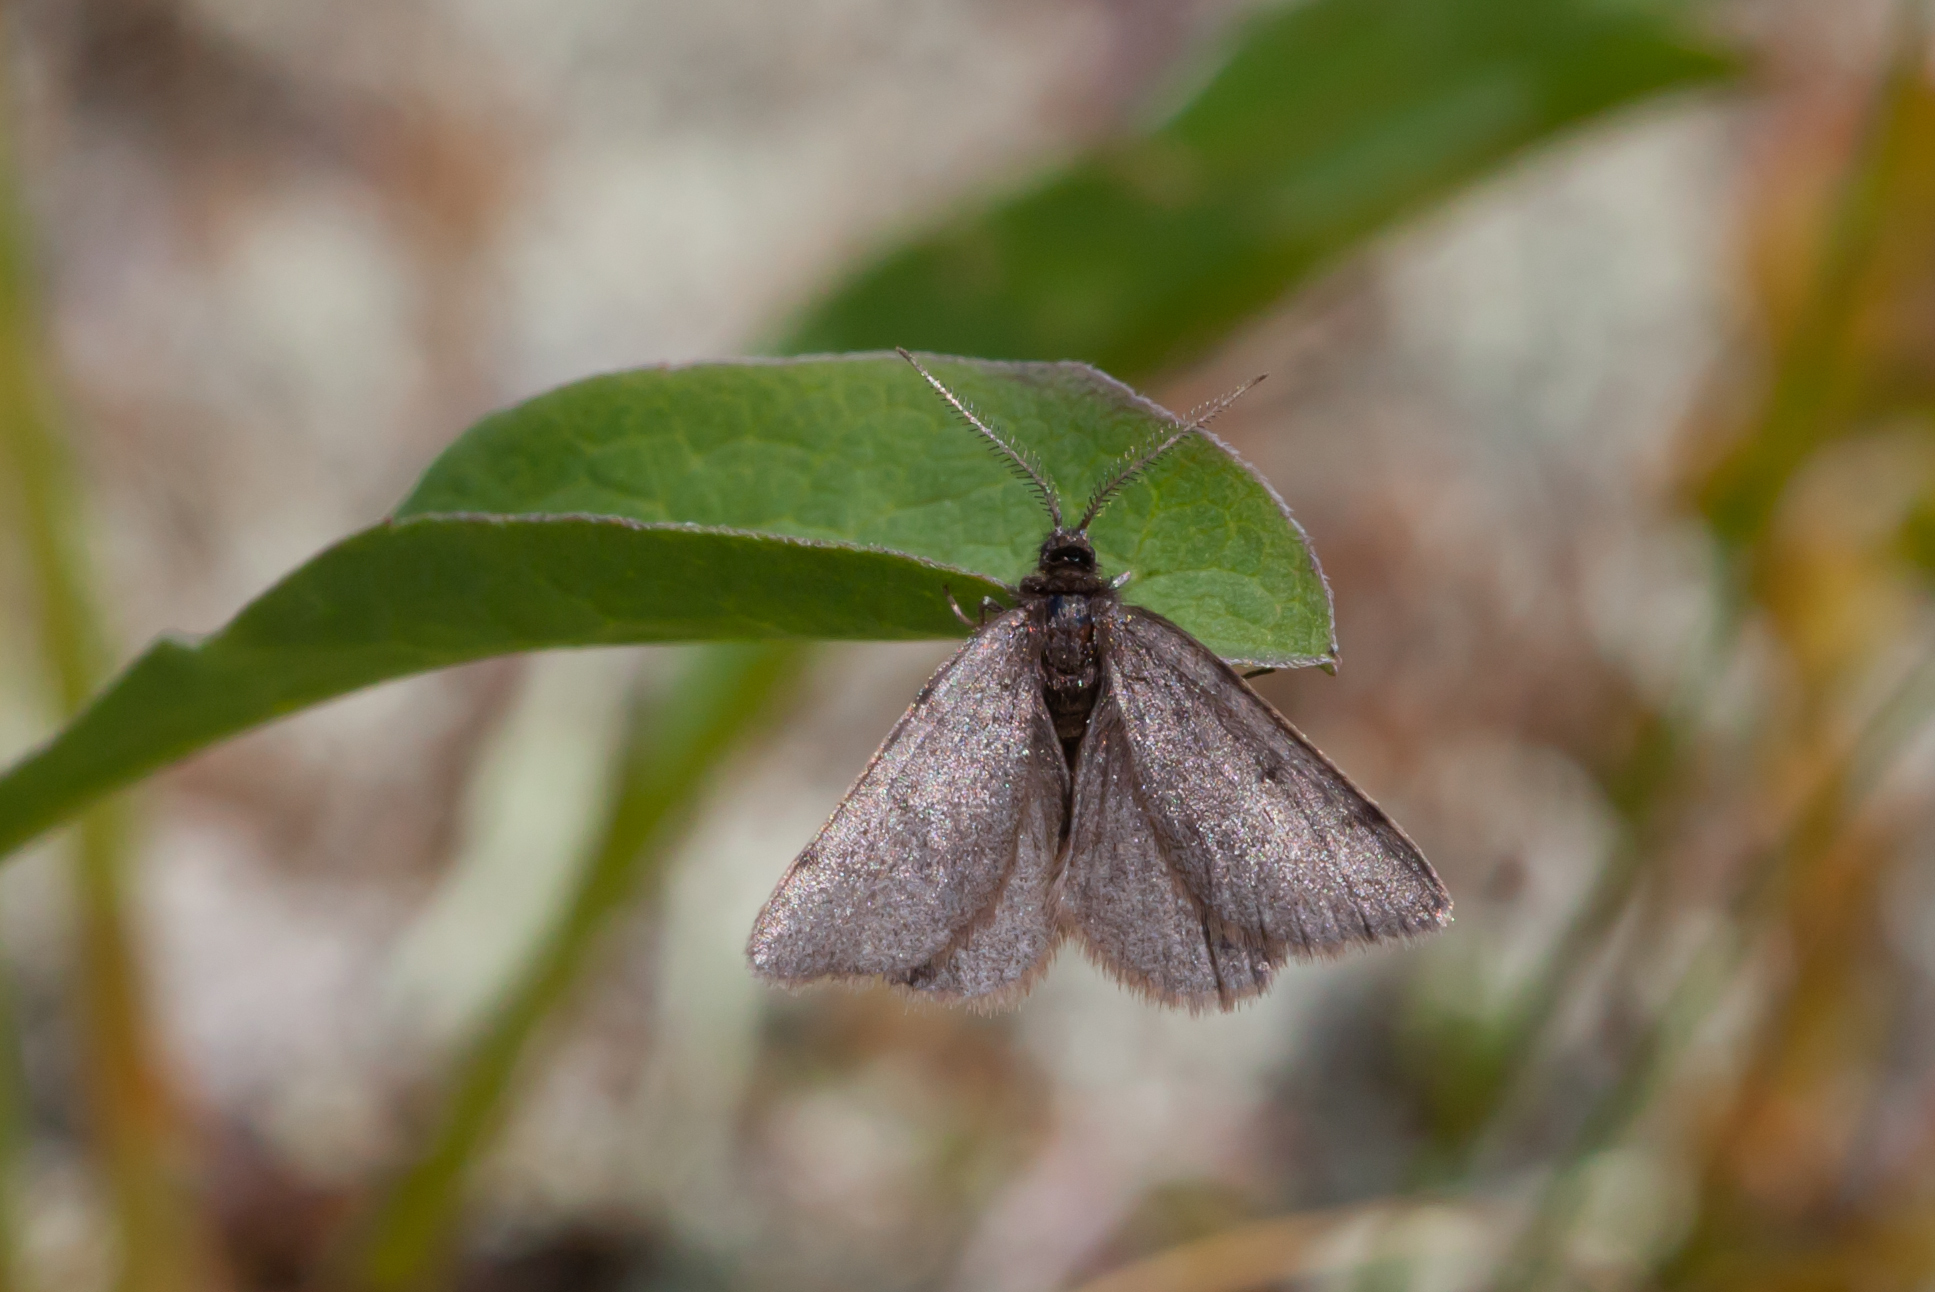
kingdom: Animalia
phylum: Arthropoda
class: Insecta
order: Lepidoptera
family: Geometridae
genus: Macaria
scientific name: Macaria fusca
